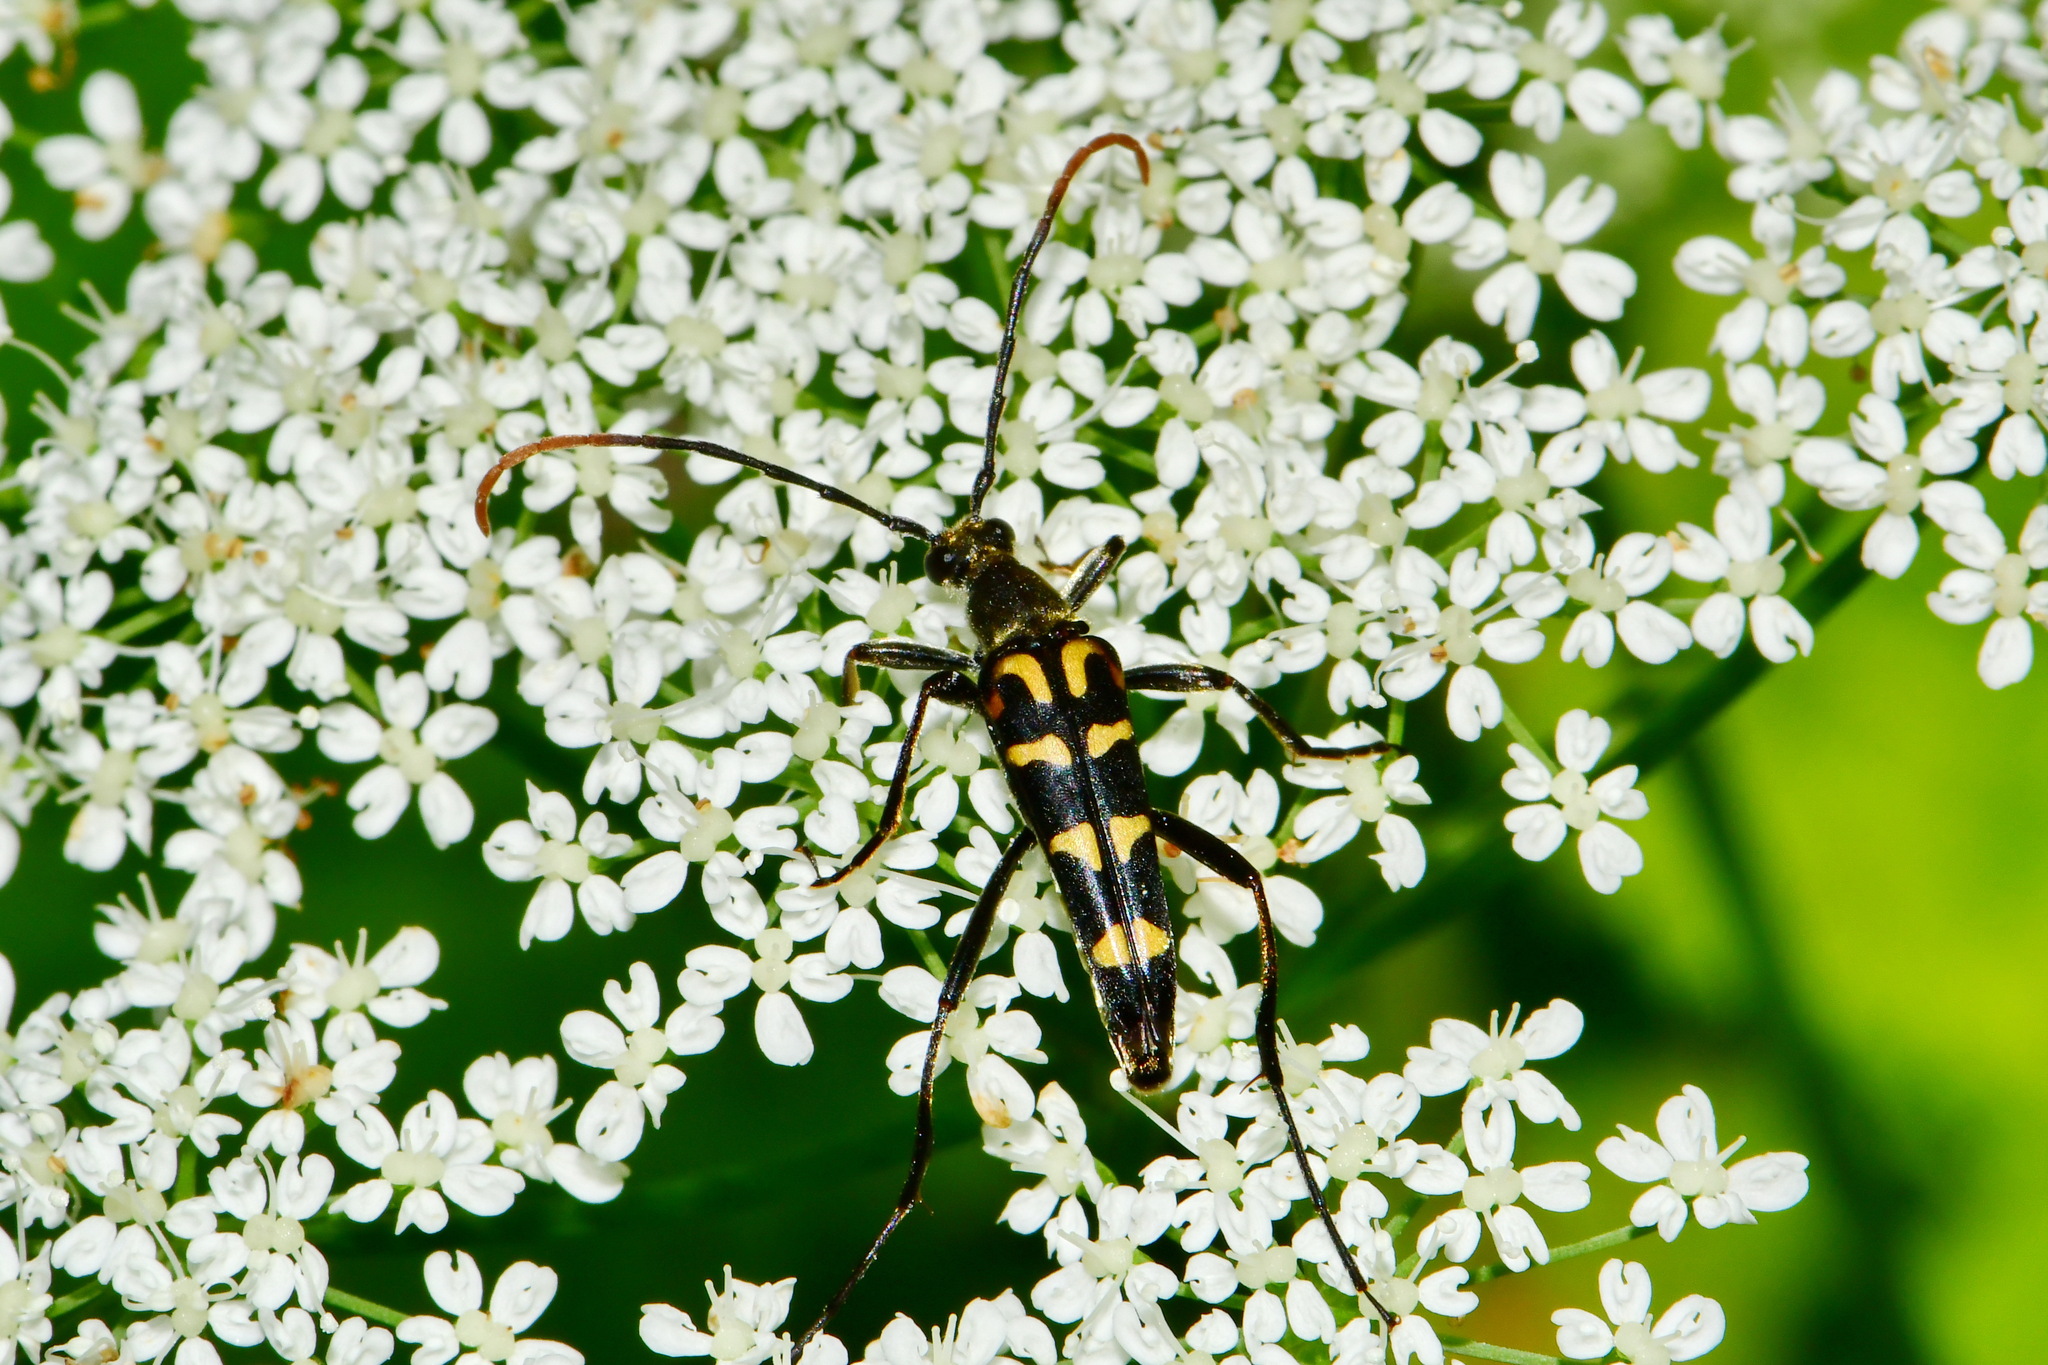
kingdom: Animalia
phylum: Arthropoda
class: Insecta
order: Coleoptera
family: Cerambycidae
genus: Leptura
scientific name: Leptura annularis
